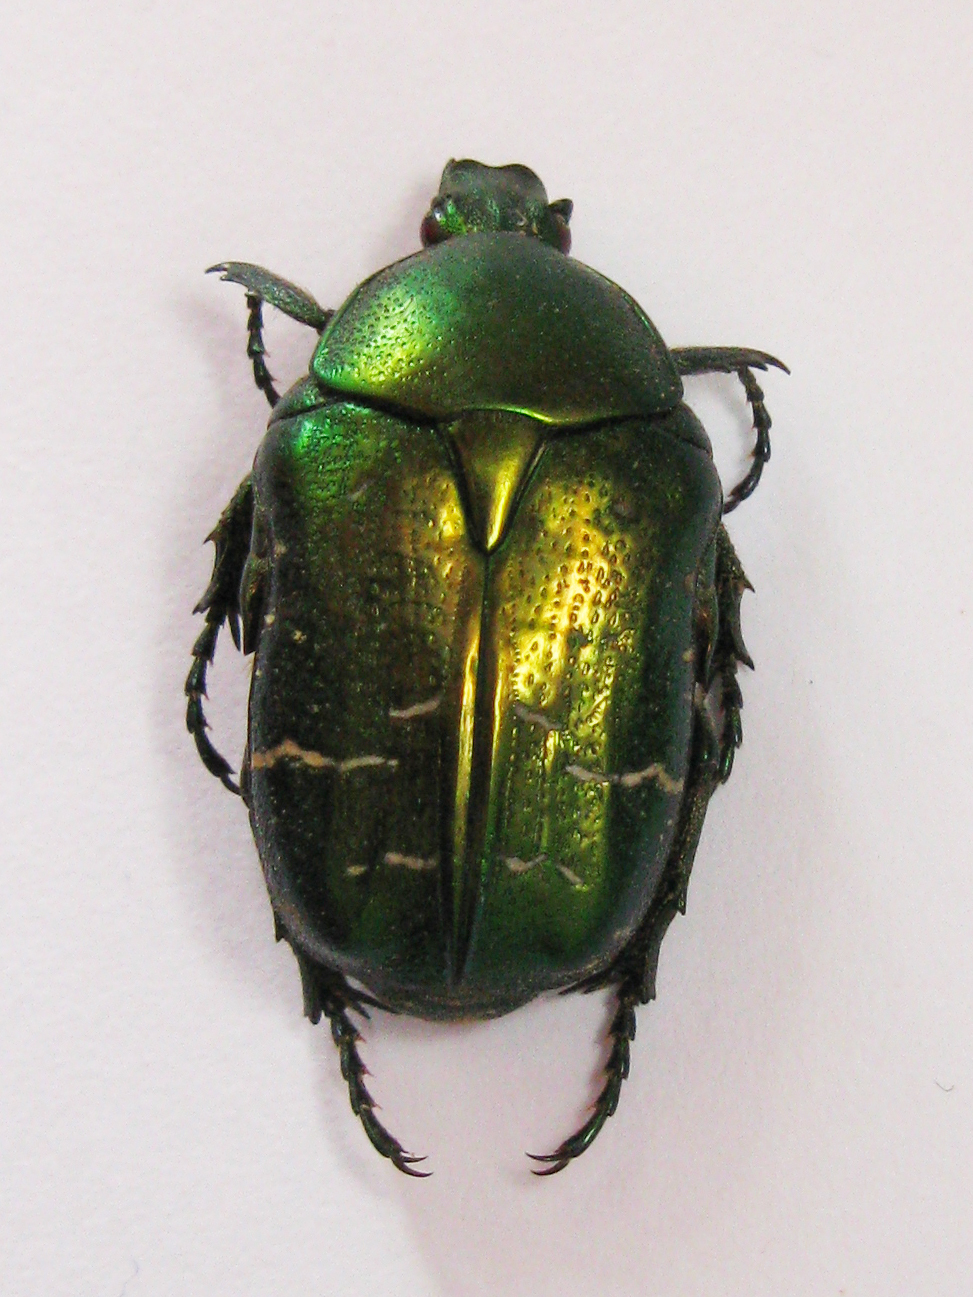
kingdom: Animalia
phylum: Arthropoda
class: Insecta
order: Coleoptera
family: Scarabaeidae
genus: Cetonia
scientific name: Cetonia aurata
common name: Rose chafer
